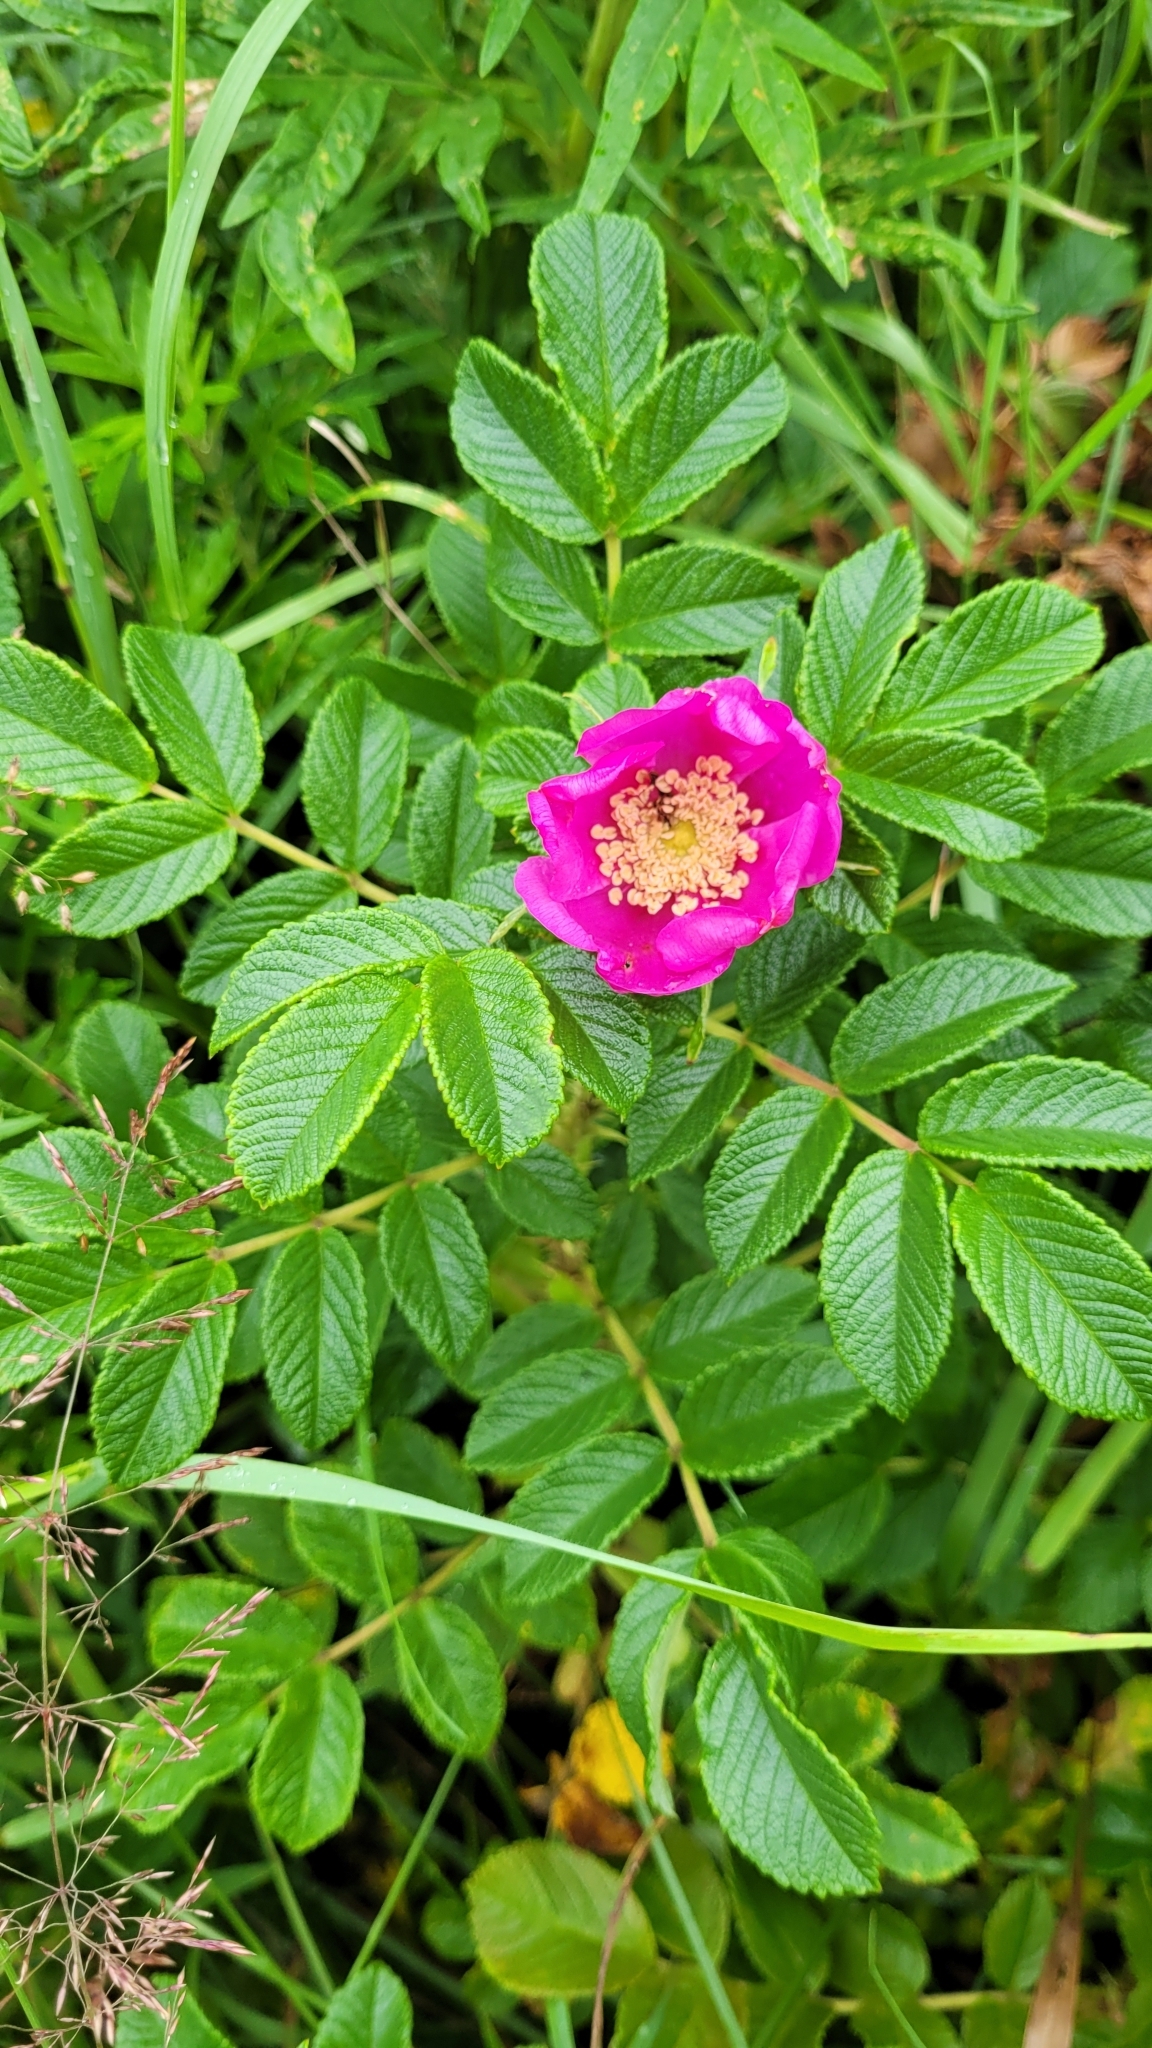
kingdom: Plantae
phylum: Tracheophyta
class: Magnoliopsida
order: Rosales
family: Rosaceae
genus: Rosa
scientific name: Rosa rugosa
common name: Japanese rose
